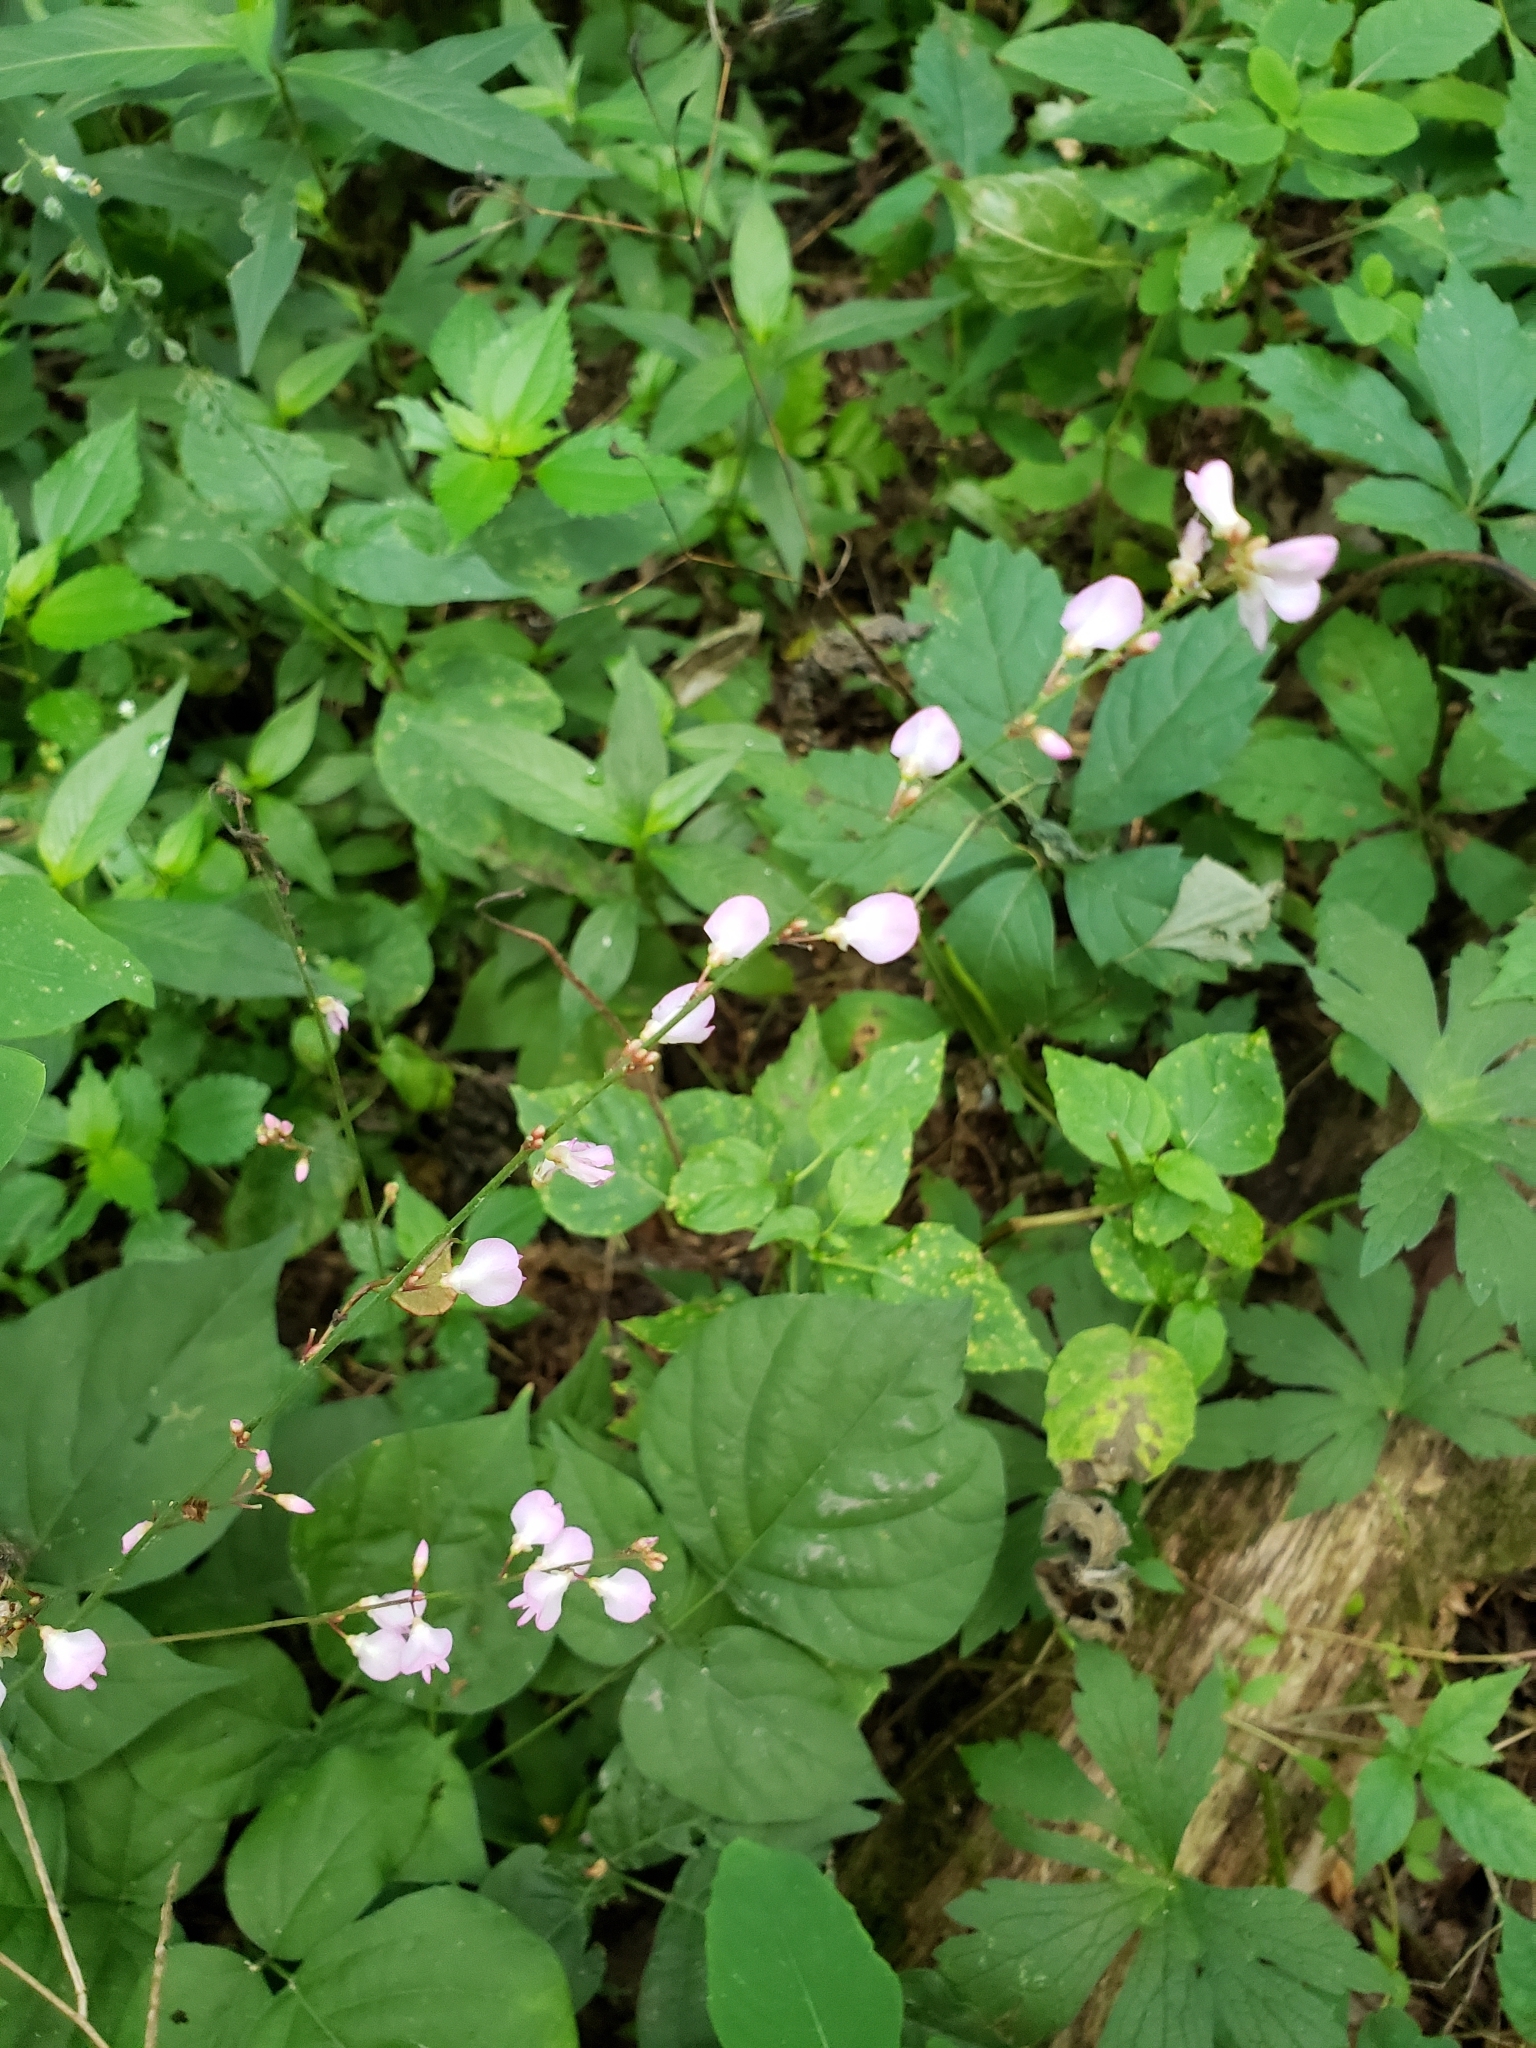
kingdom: Plantae
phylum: Tracheophyta
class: Magnoliopsida
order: Fabales
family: Fabaceae
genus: Hylodesmum
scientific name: Hylodesmum glutinosum
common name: Clustered-leaved tick-trefoil
